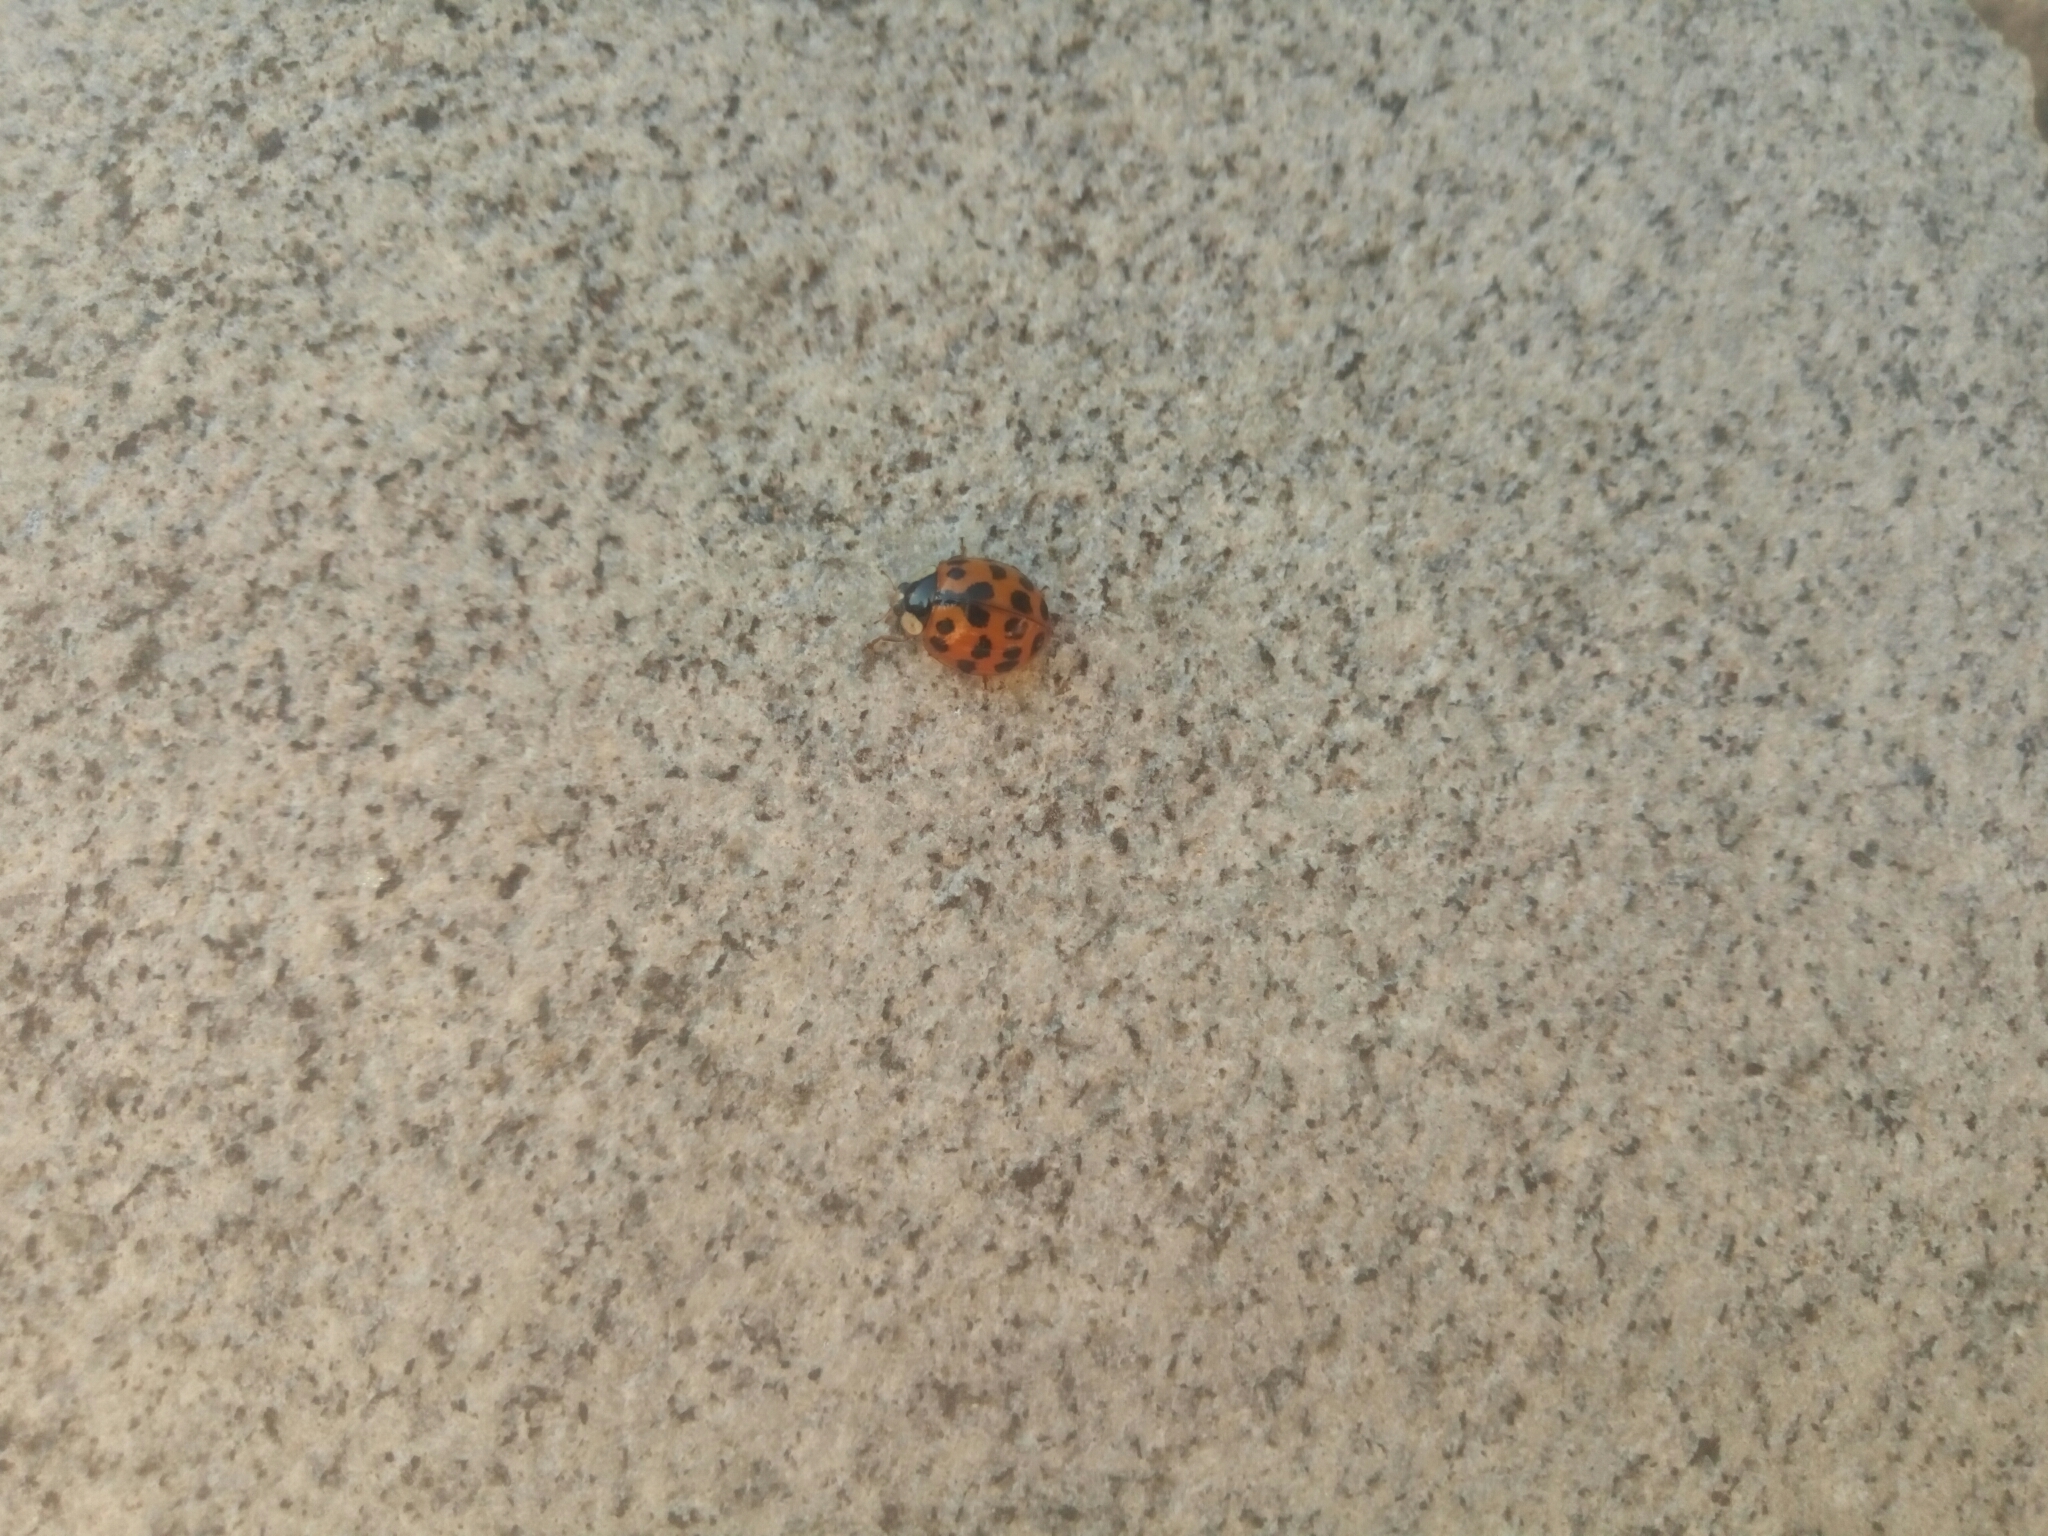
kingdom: Animalia
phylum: Arthropoda
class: Insecta
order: Coleoptera
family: Coccinellidae
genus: Harmonia
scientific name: Harmonia axyridis
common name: Harlequin ladybird
